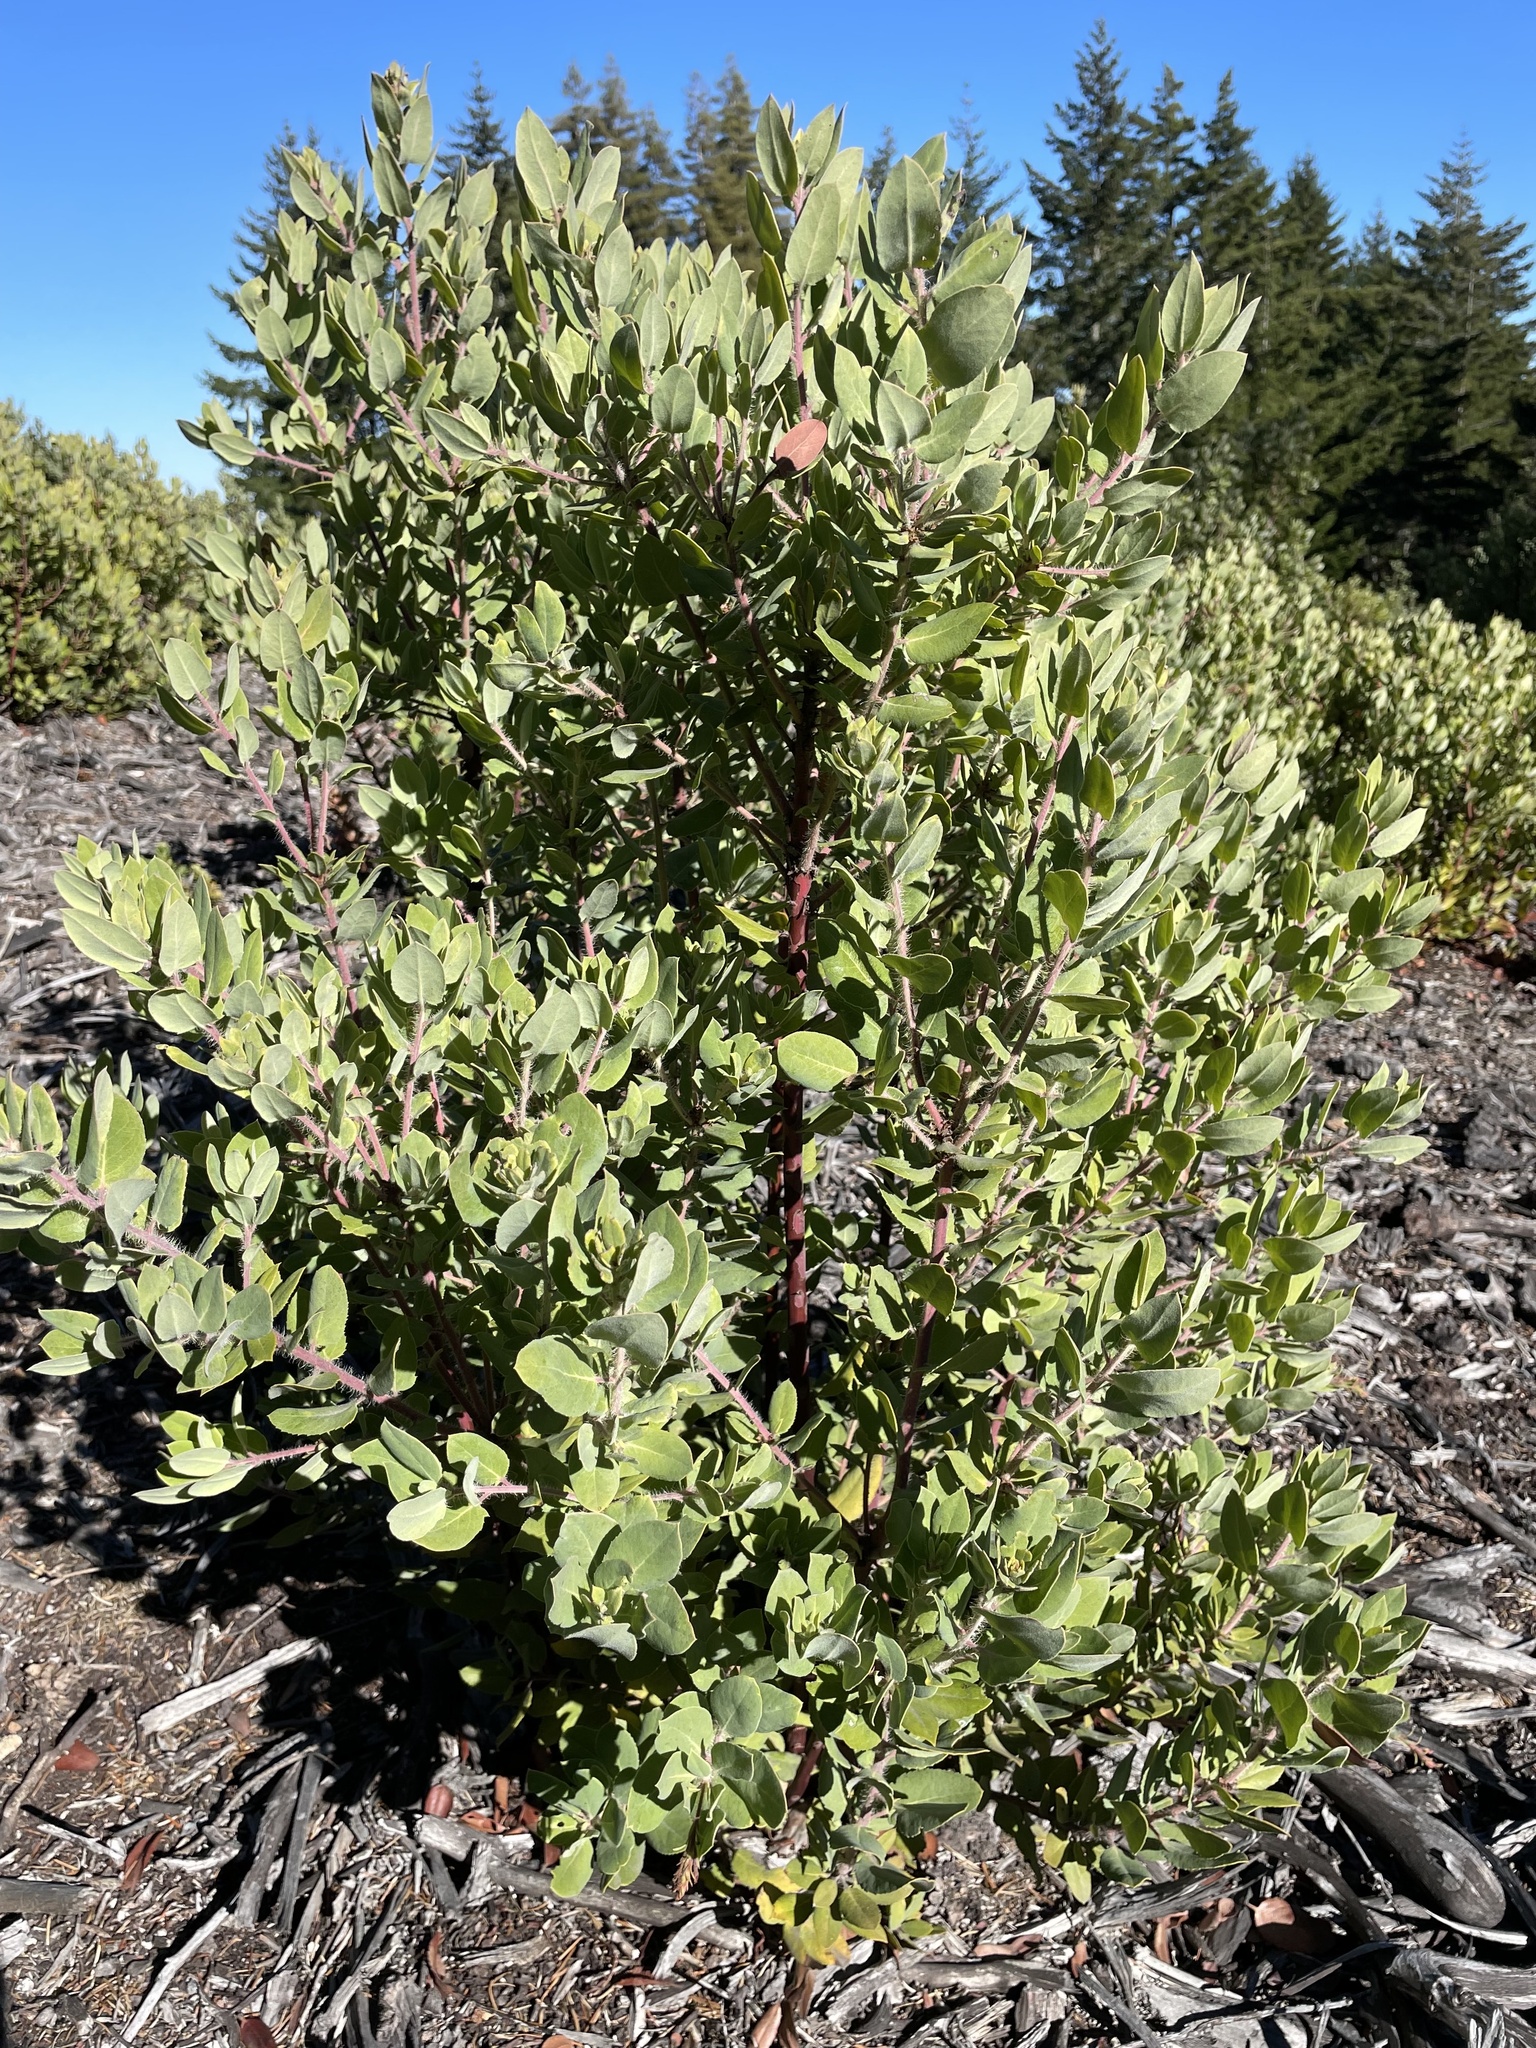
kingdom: Plantae
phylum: Tracheophyta
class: Magnoliopsida
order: Ericales
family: Ericaceae
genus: Arctostaphylos
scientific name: Arctostaphylos crustacea
